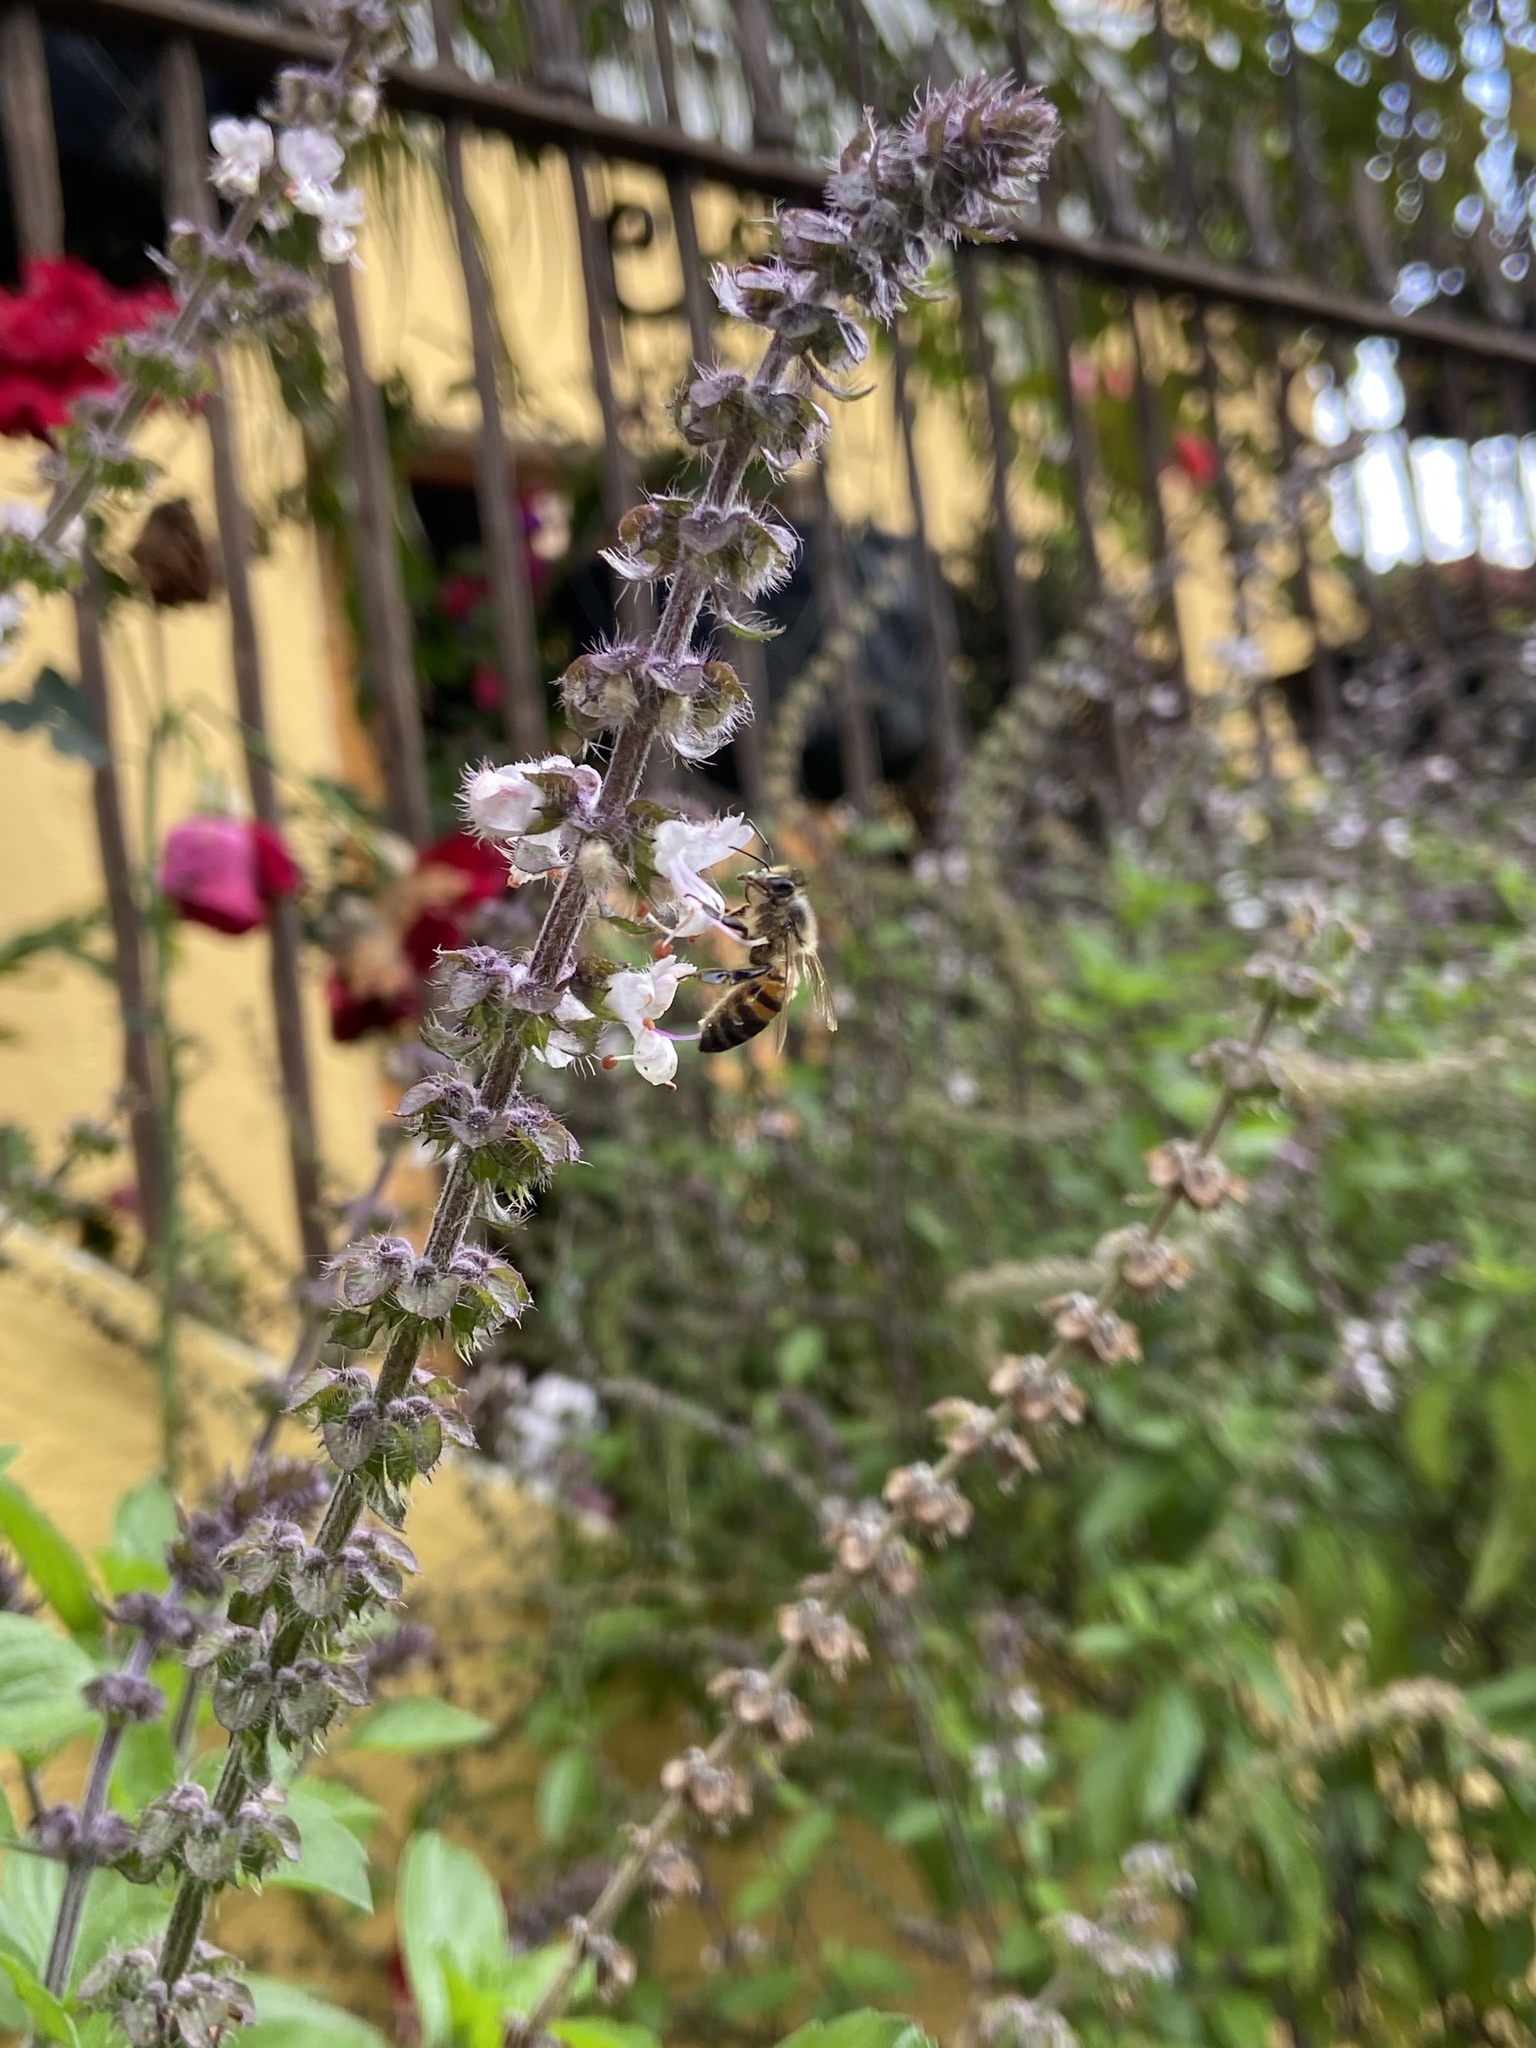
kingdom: Animalia
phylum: Arthropoda
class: Insecta
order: Hymenoptera
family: Apidae
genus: Apis
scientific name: Apis mellifera
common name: Honey bee
